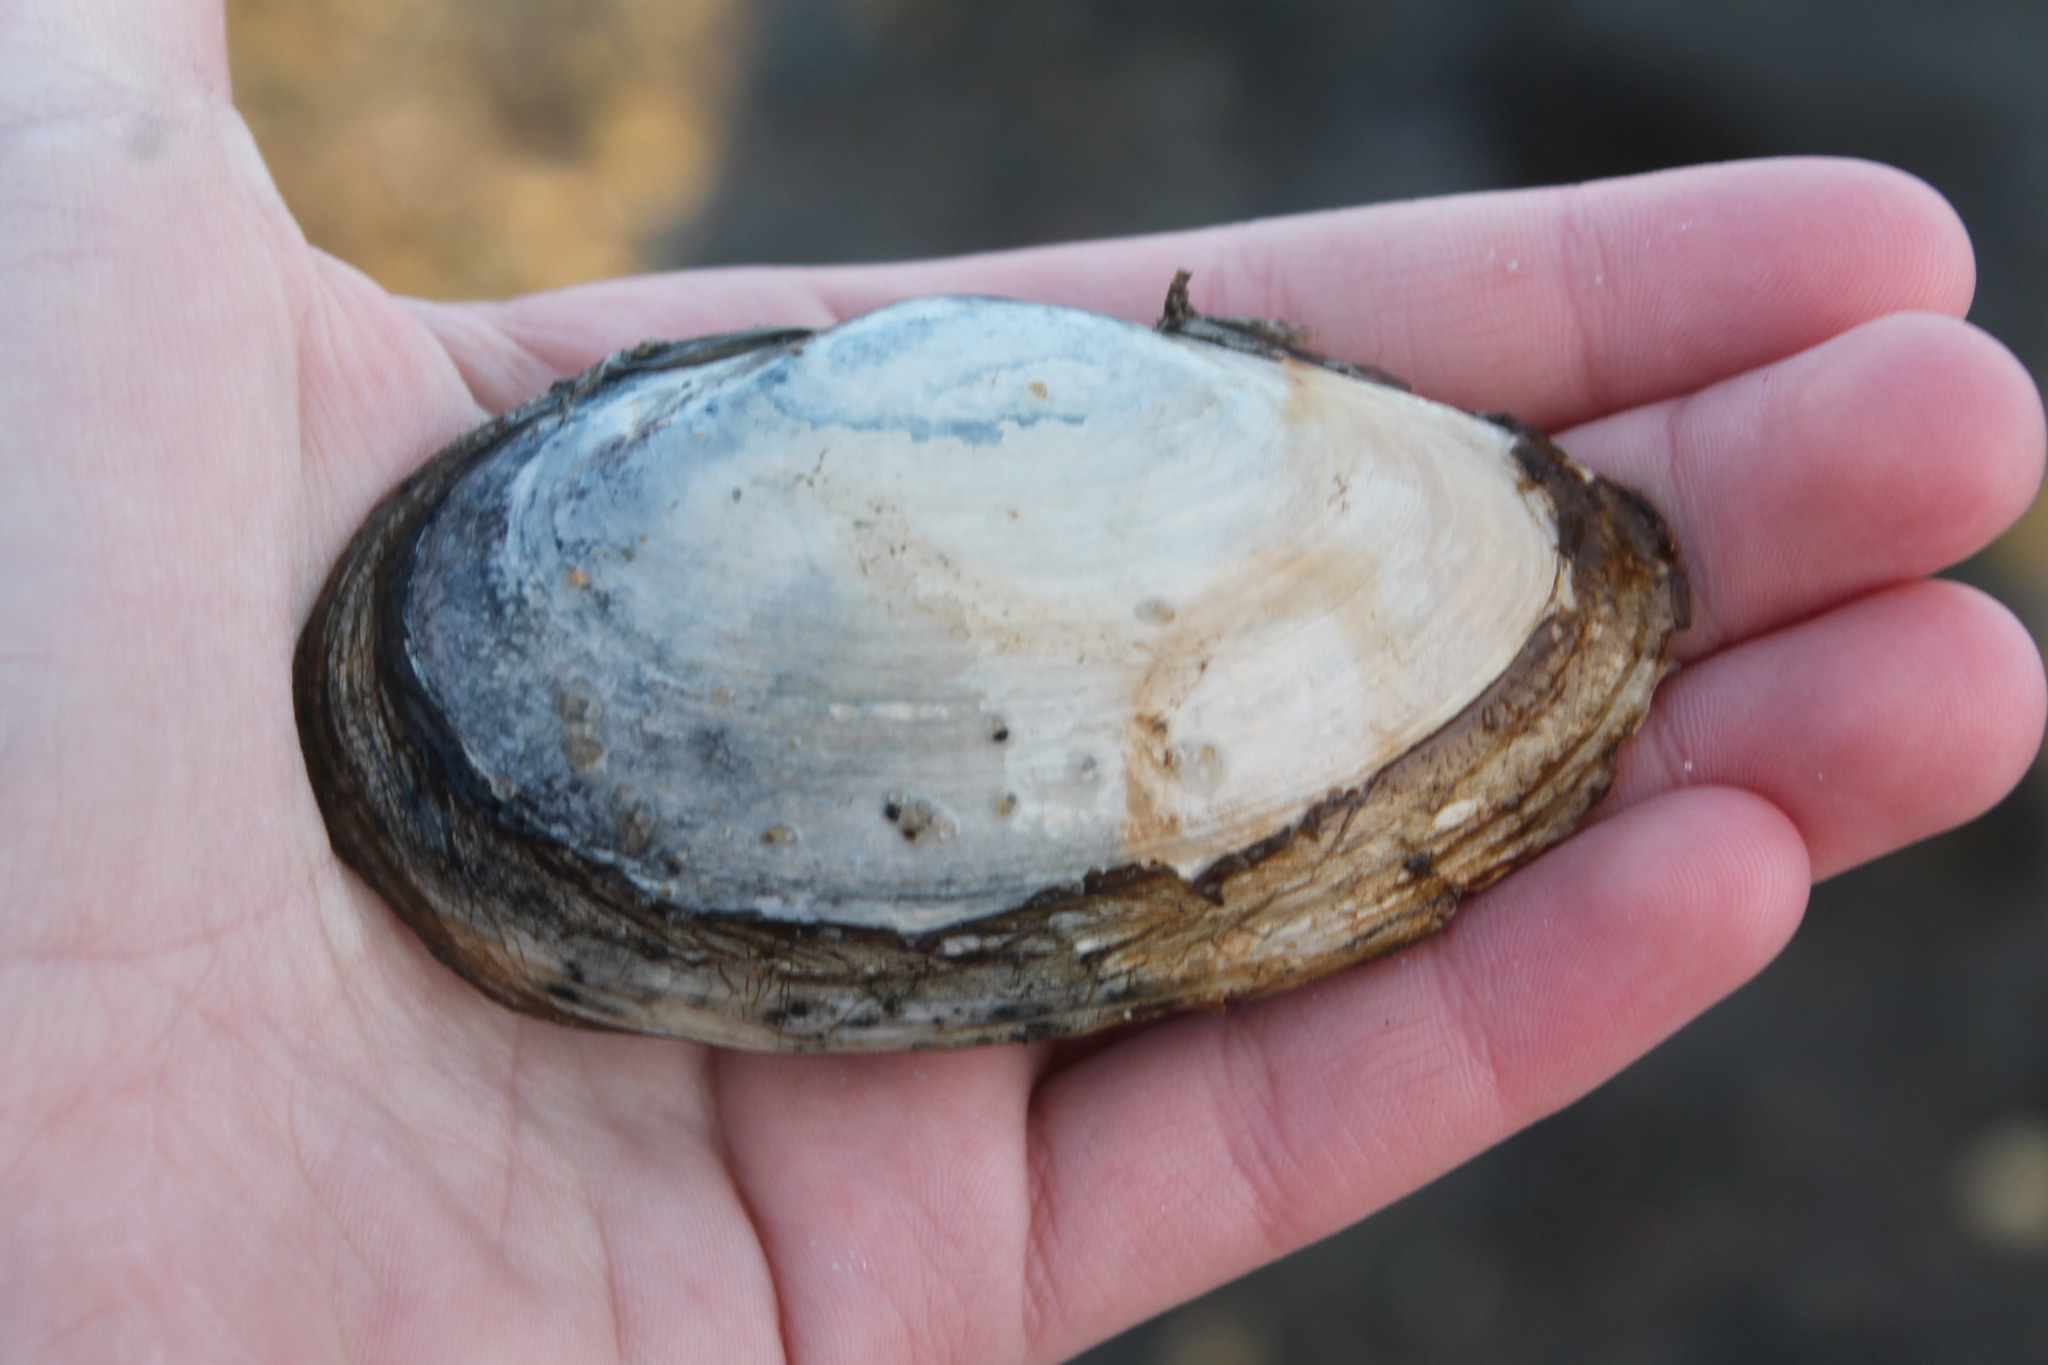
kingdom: Animalia
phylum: Mollusca
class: Bivalvia
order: Myida
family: Myidae
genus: Mya
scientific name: Mya arenaria
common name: Soft-shelled clam
